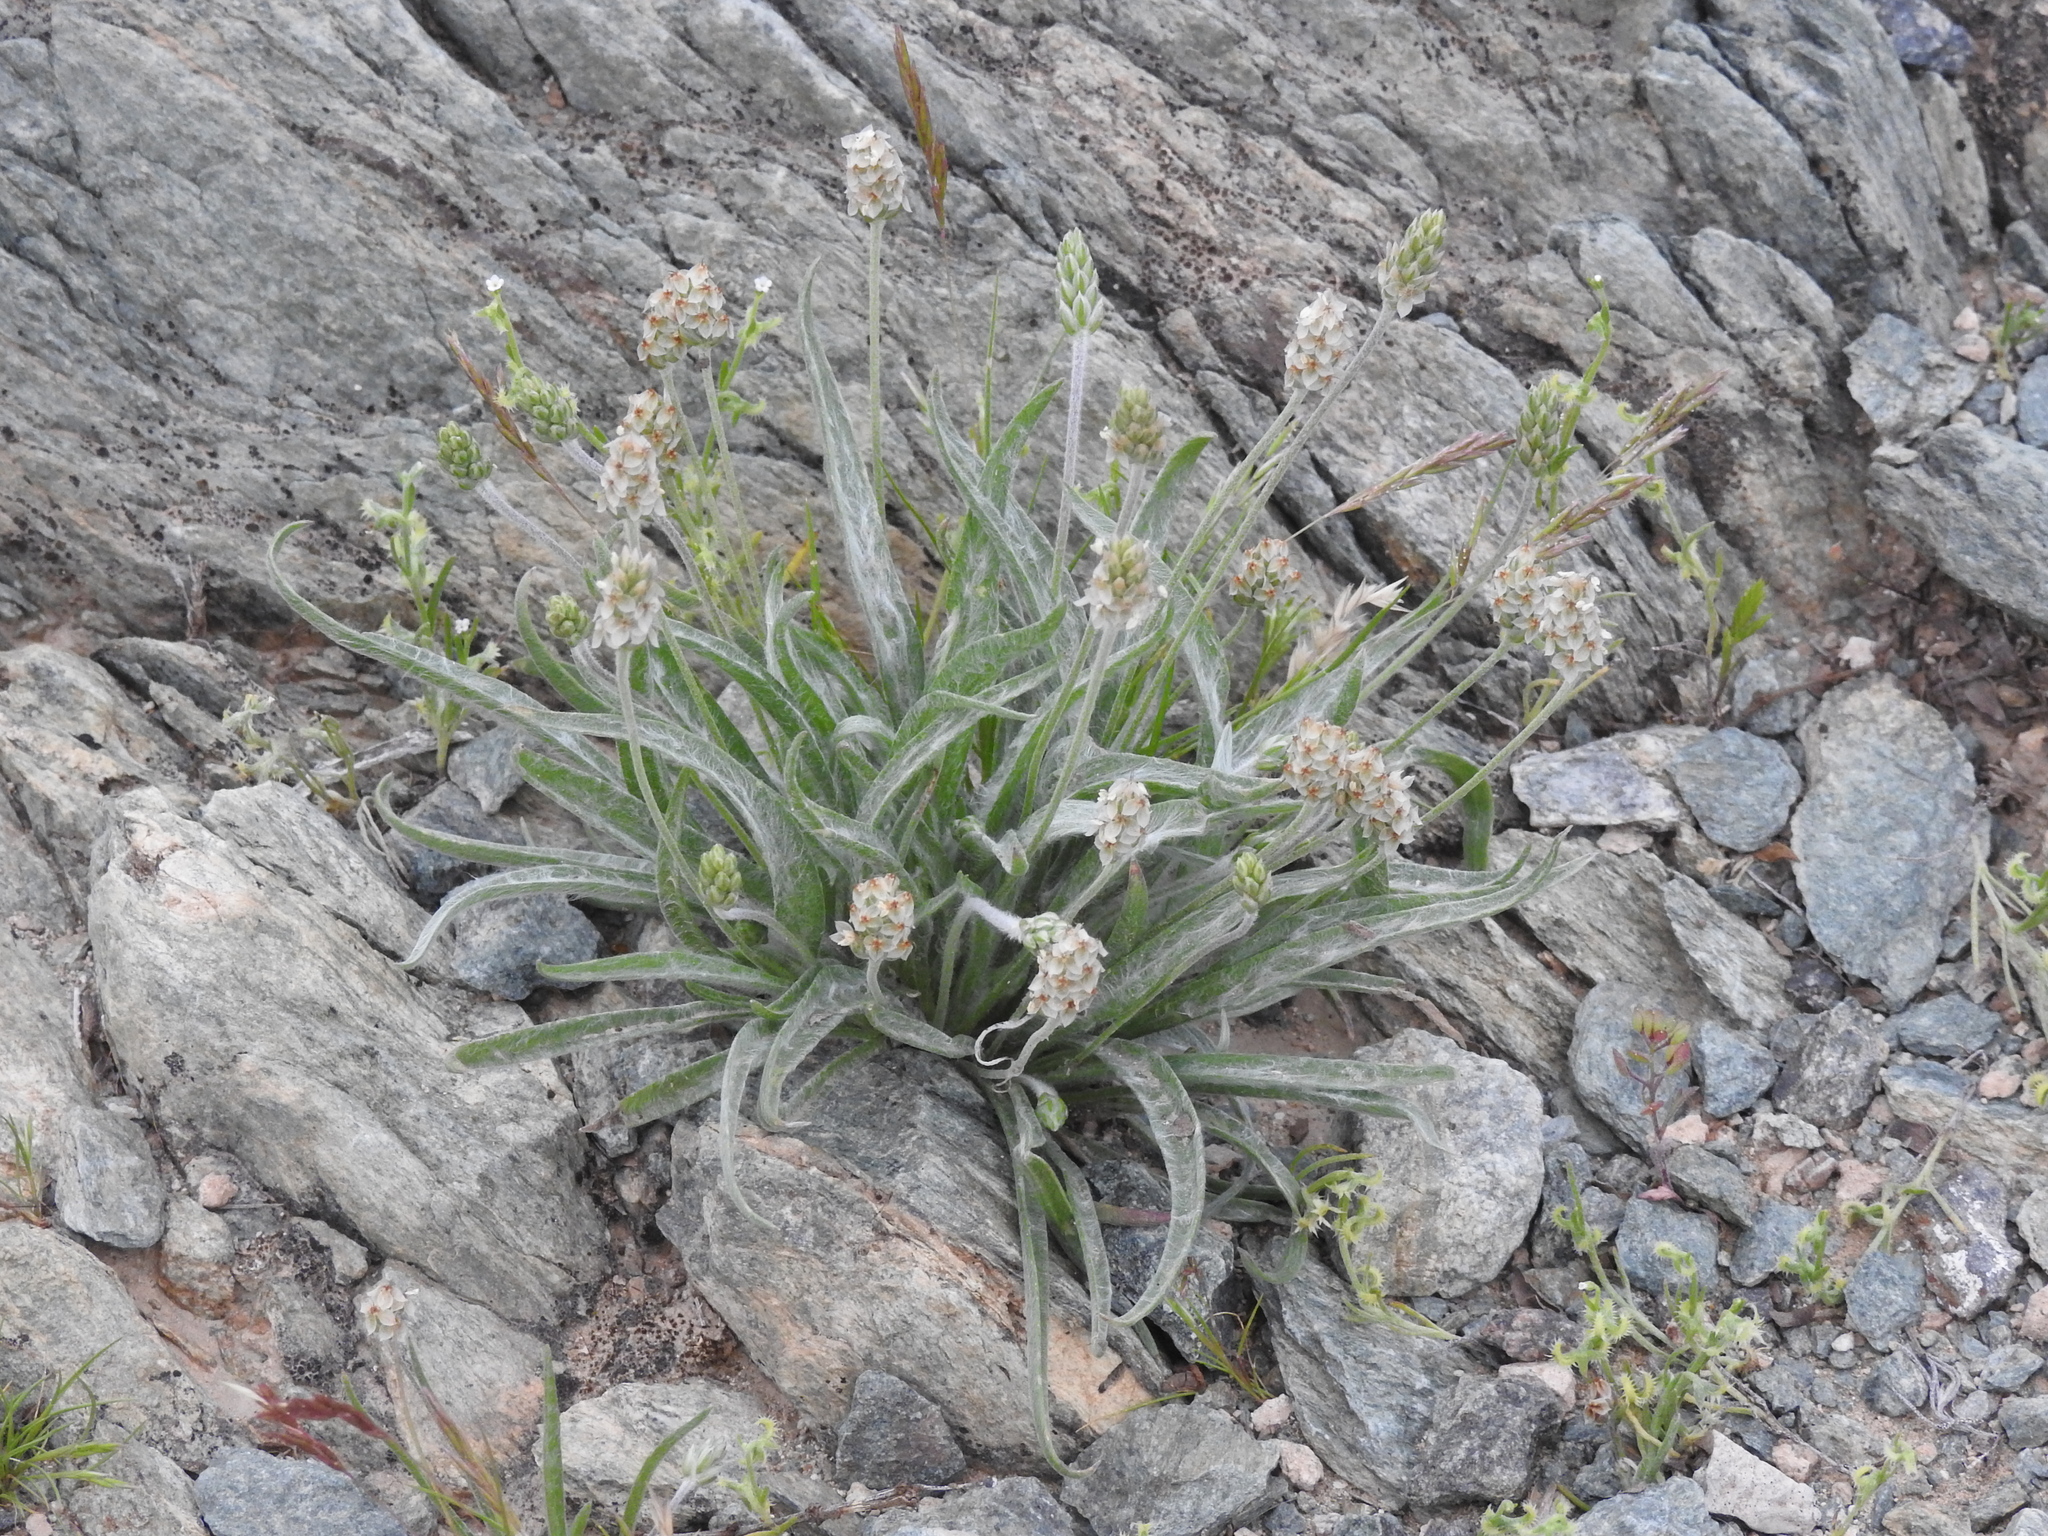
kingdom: Plantae
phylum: Tracheophyta
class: Magnoliopsida
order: Lamiales
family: Plantaginaceae
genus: Plantago
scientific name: Plantago ovata
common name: Blond plantain
